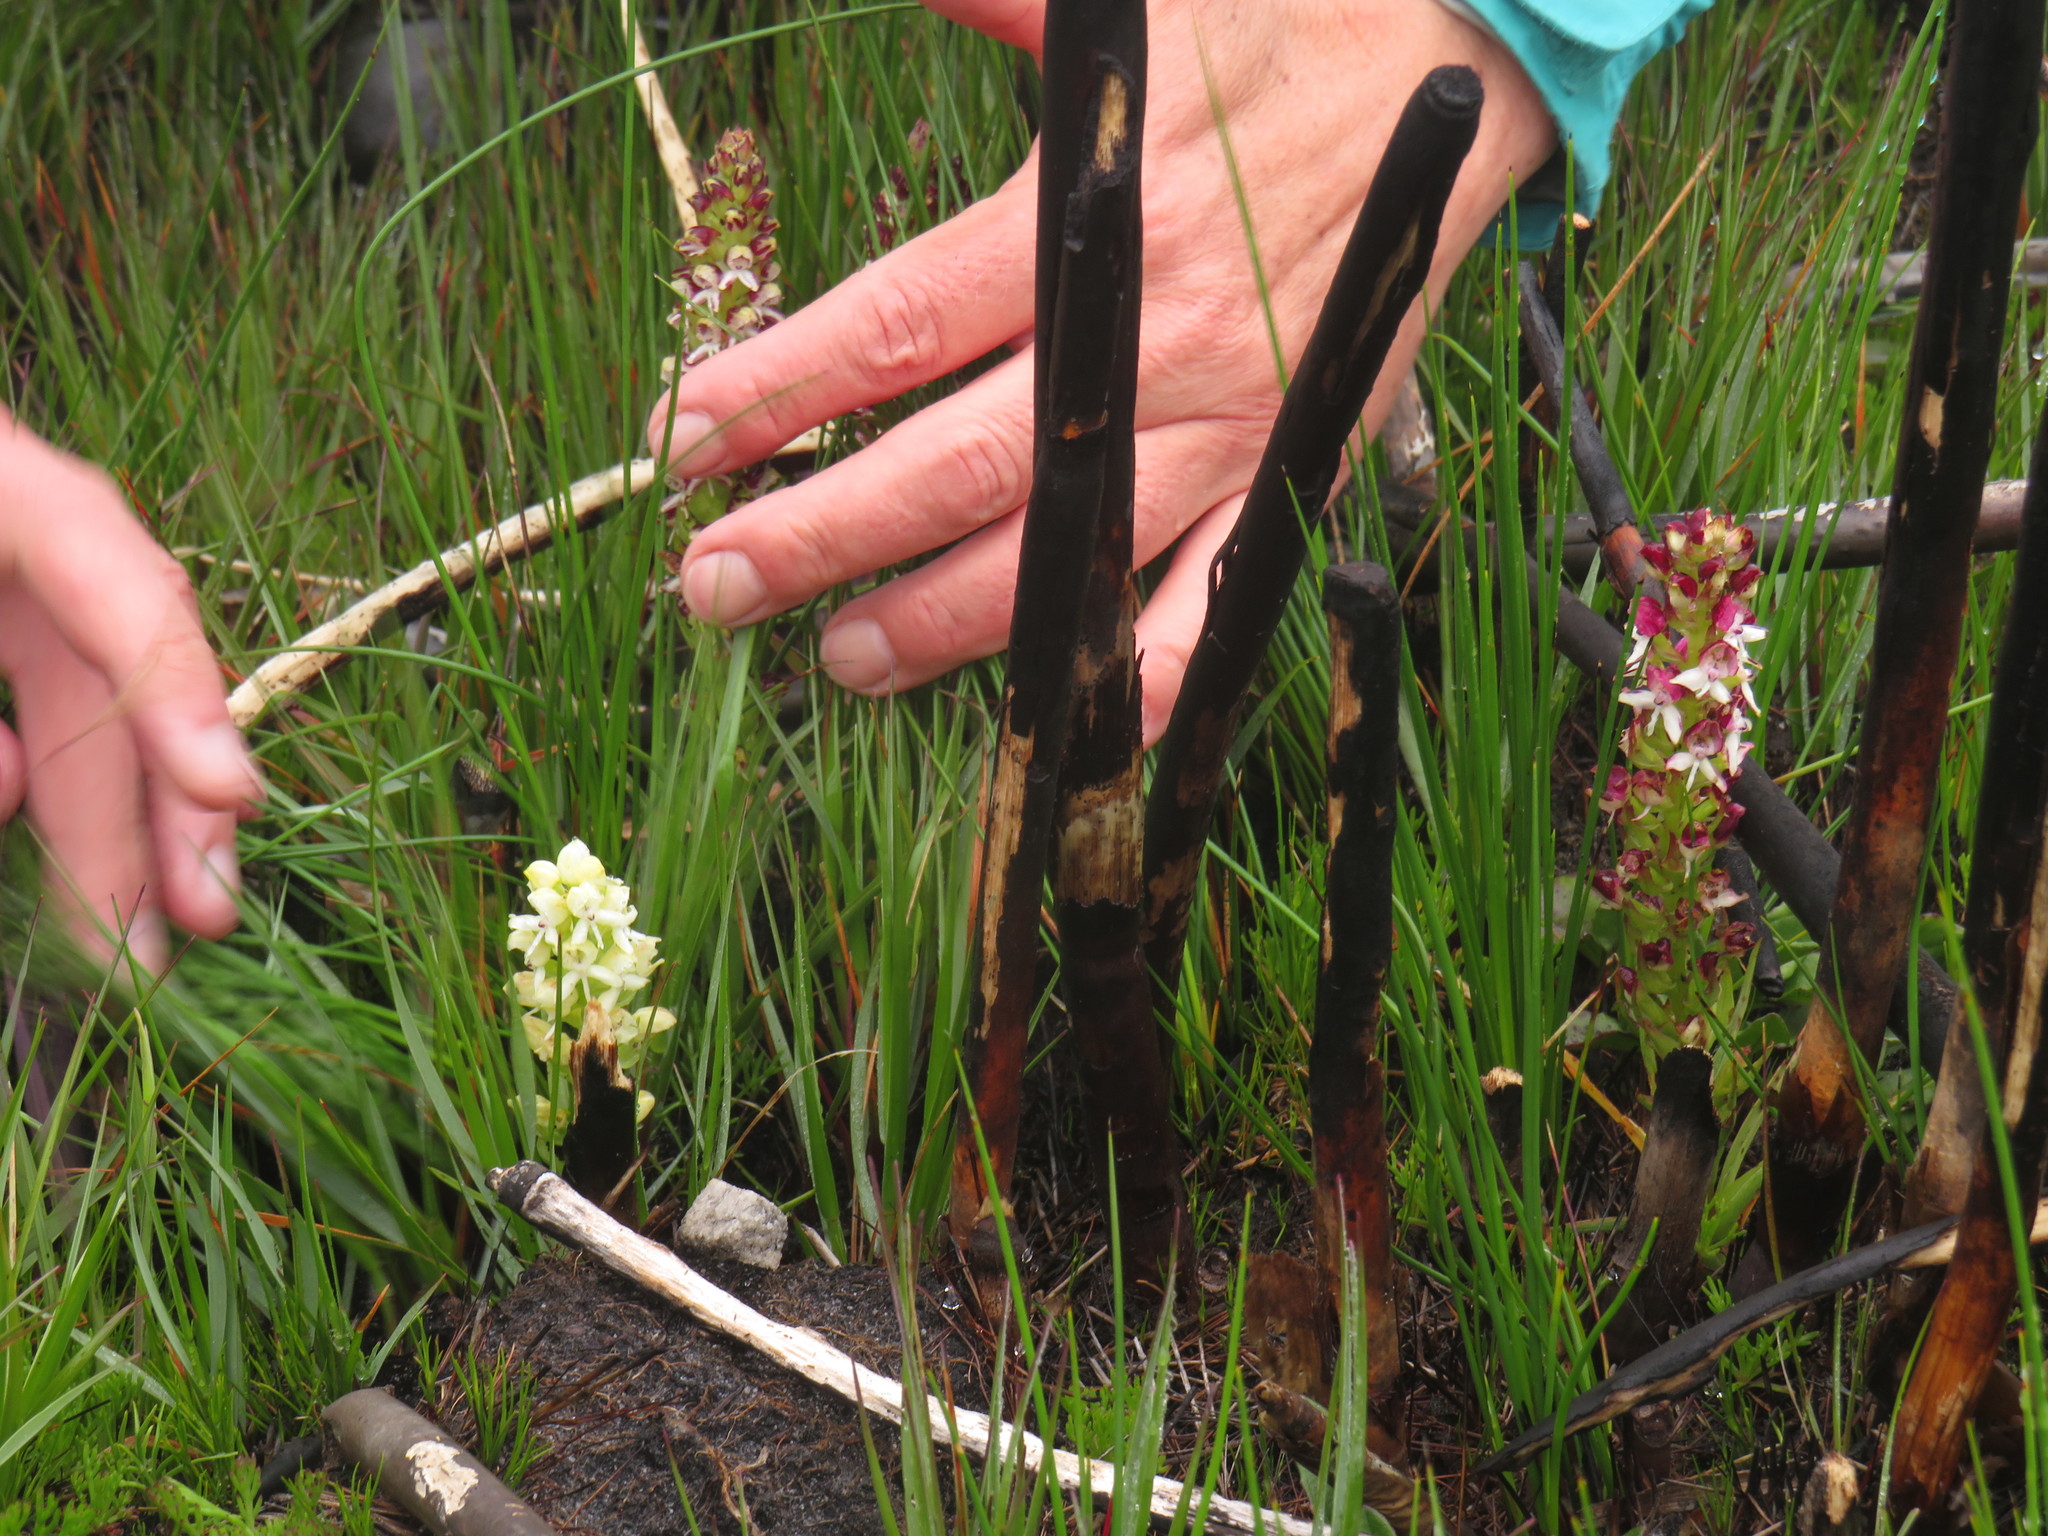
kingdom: Plantae
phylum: Tracheophyta
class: Liliopsida
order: Asparagales
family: Orchidaceae
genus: Disa
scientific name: Disa albomagentea
